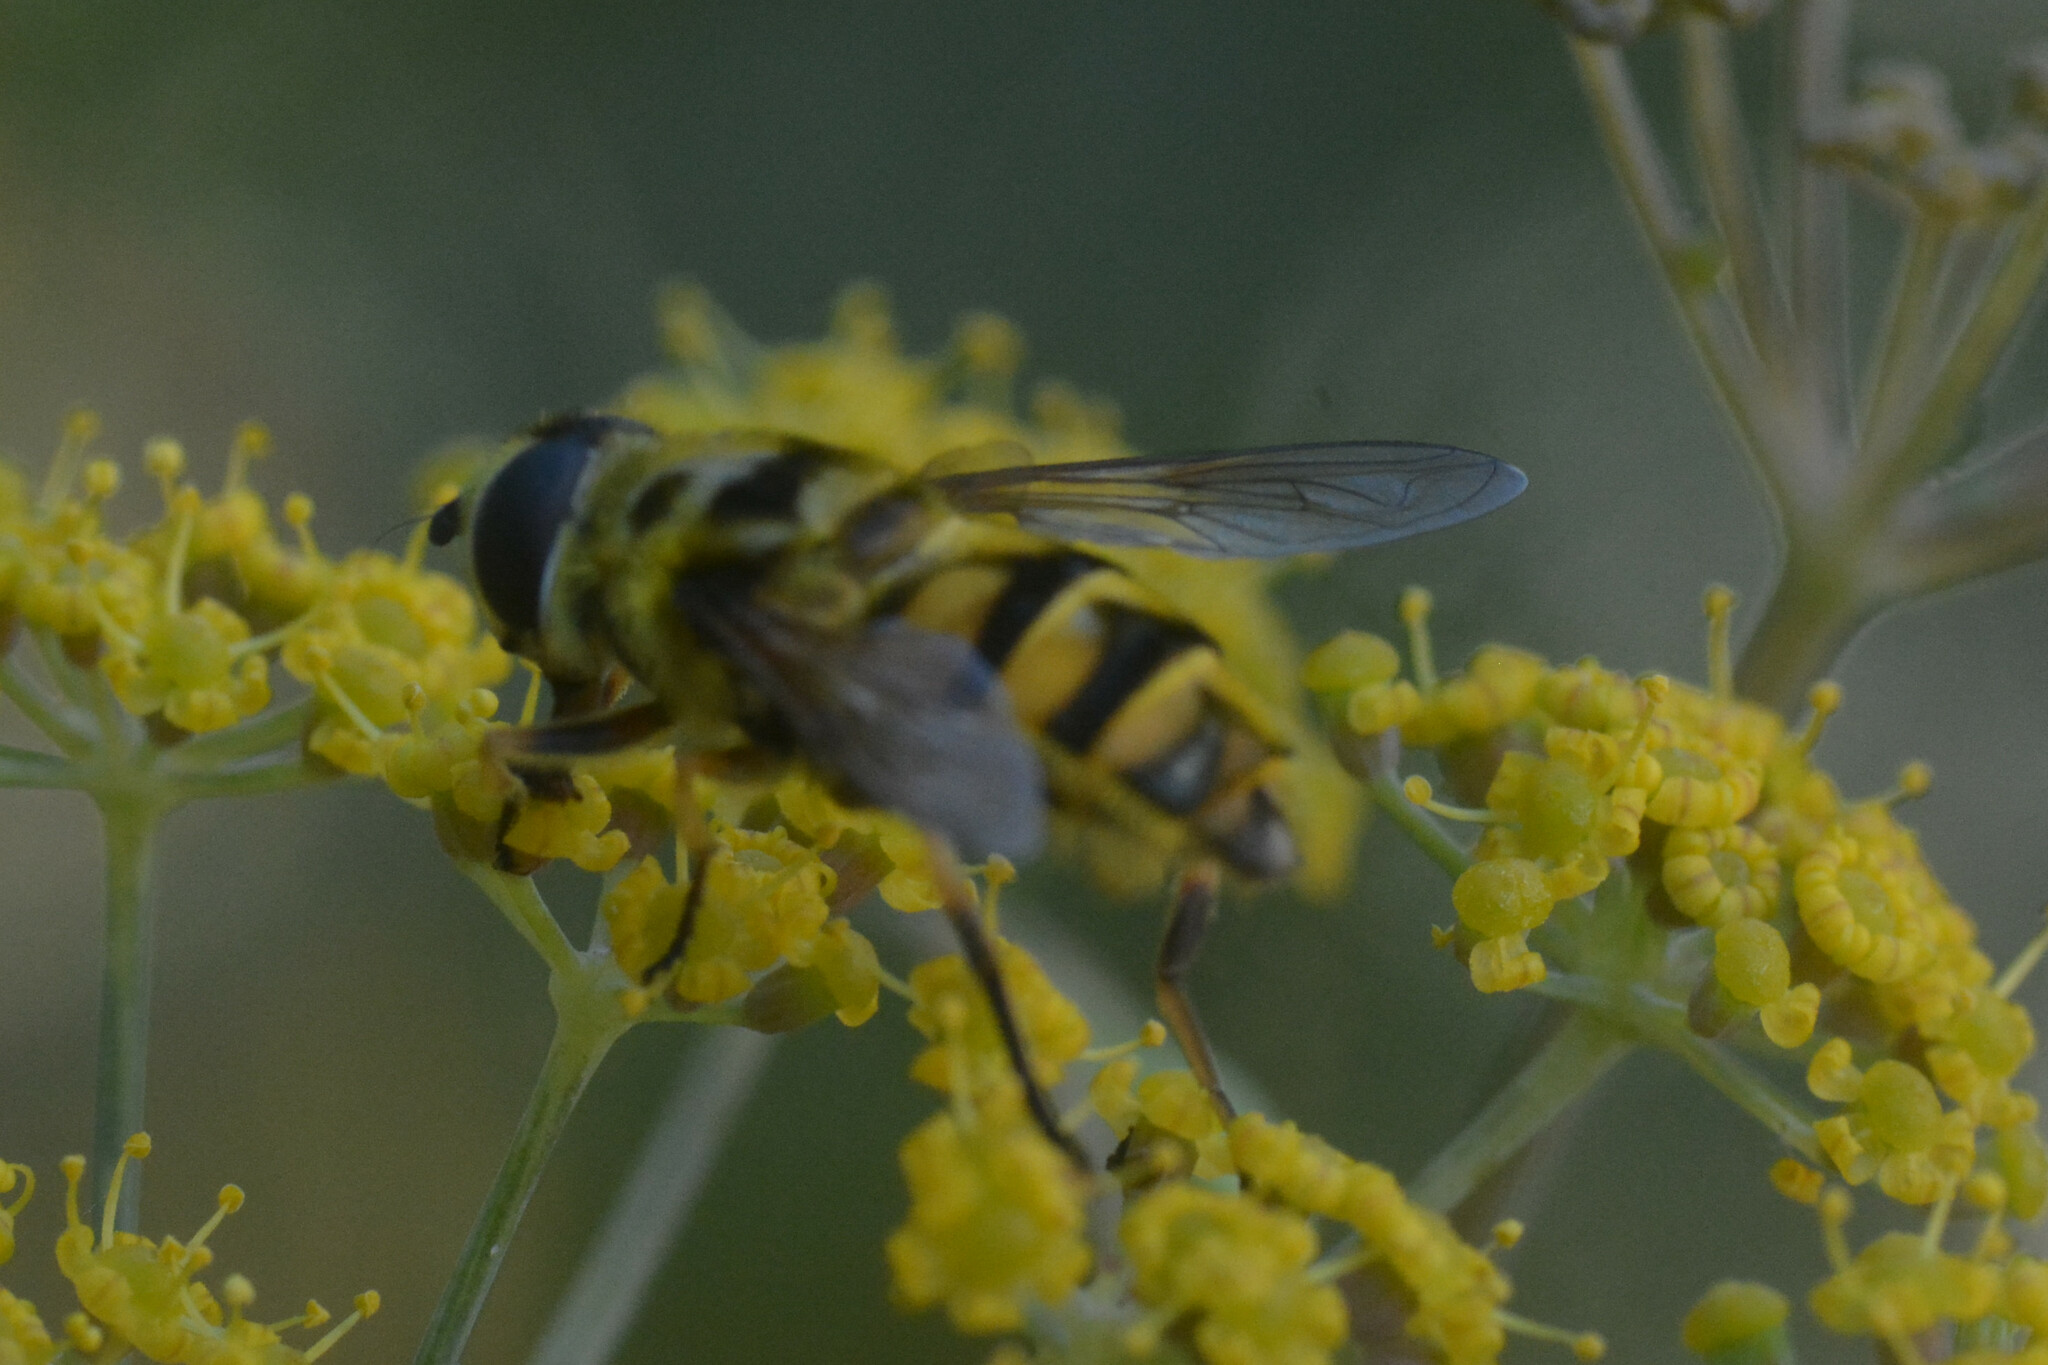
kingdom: Animalia
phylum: Arthropoda
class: Insecta
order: Diptera
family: Syrphidae
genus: Myathropa
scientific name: Myathropa florea
